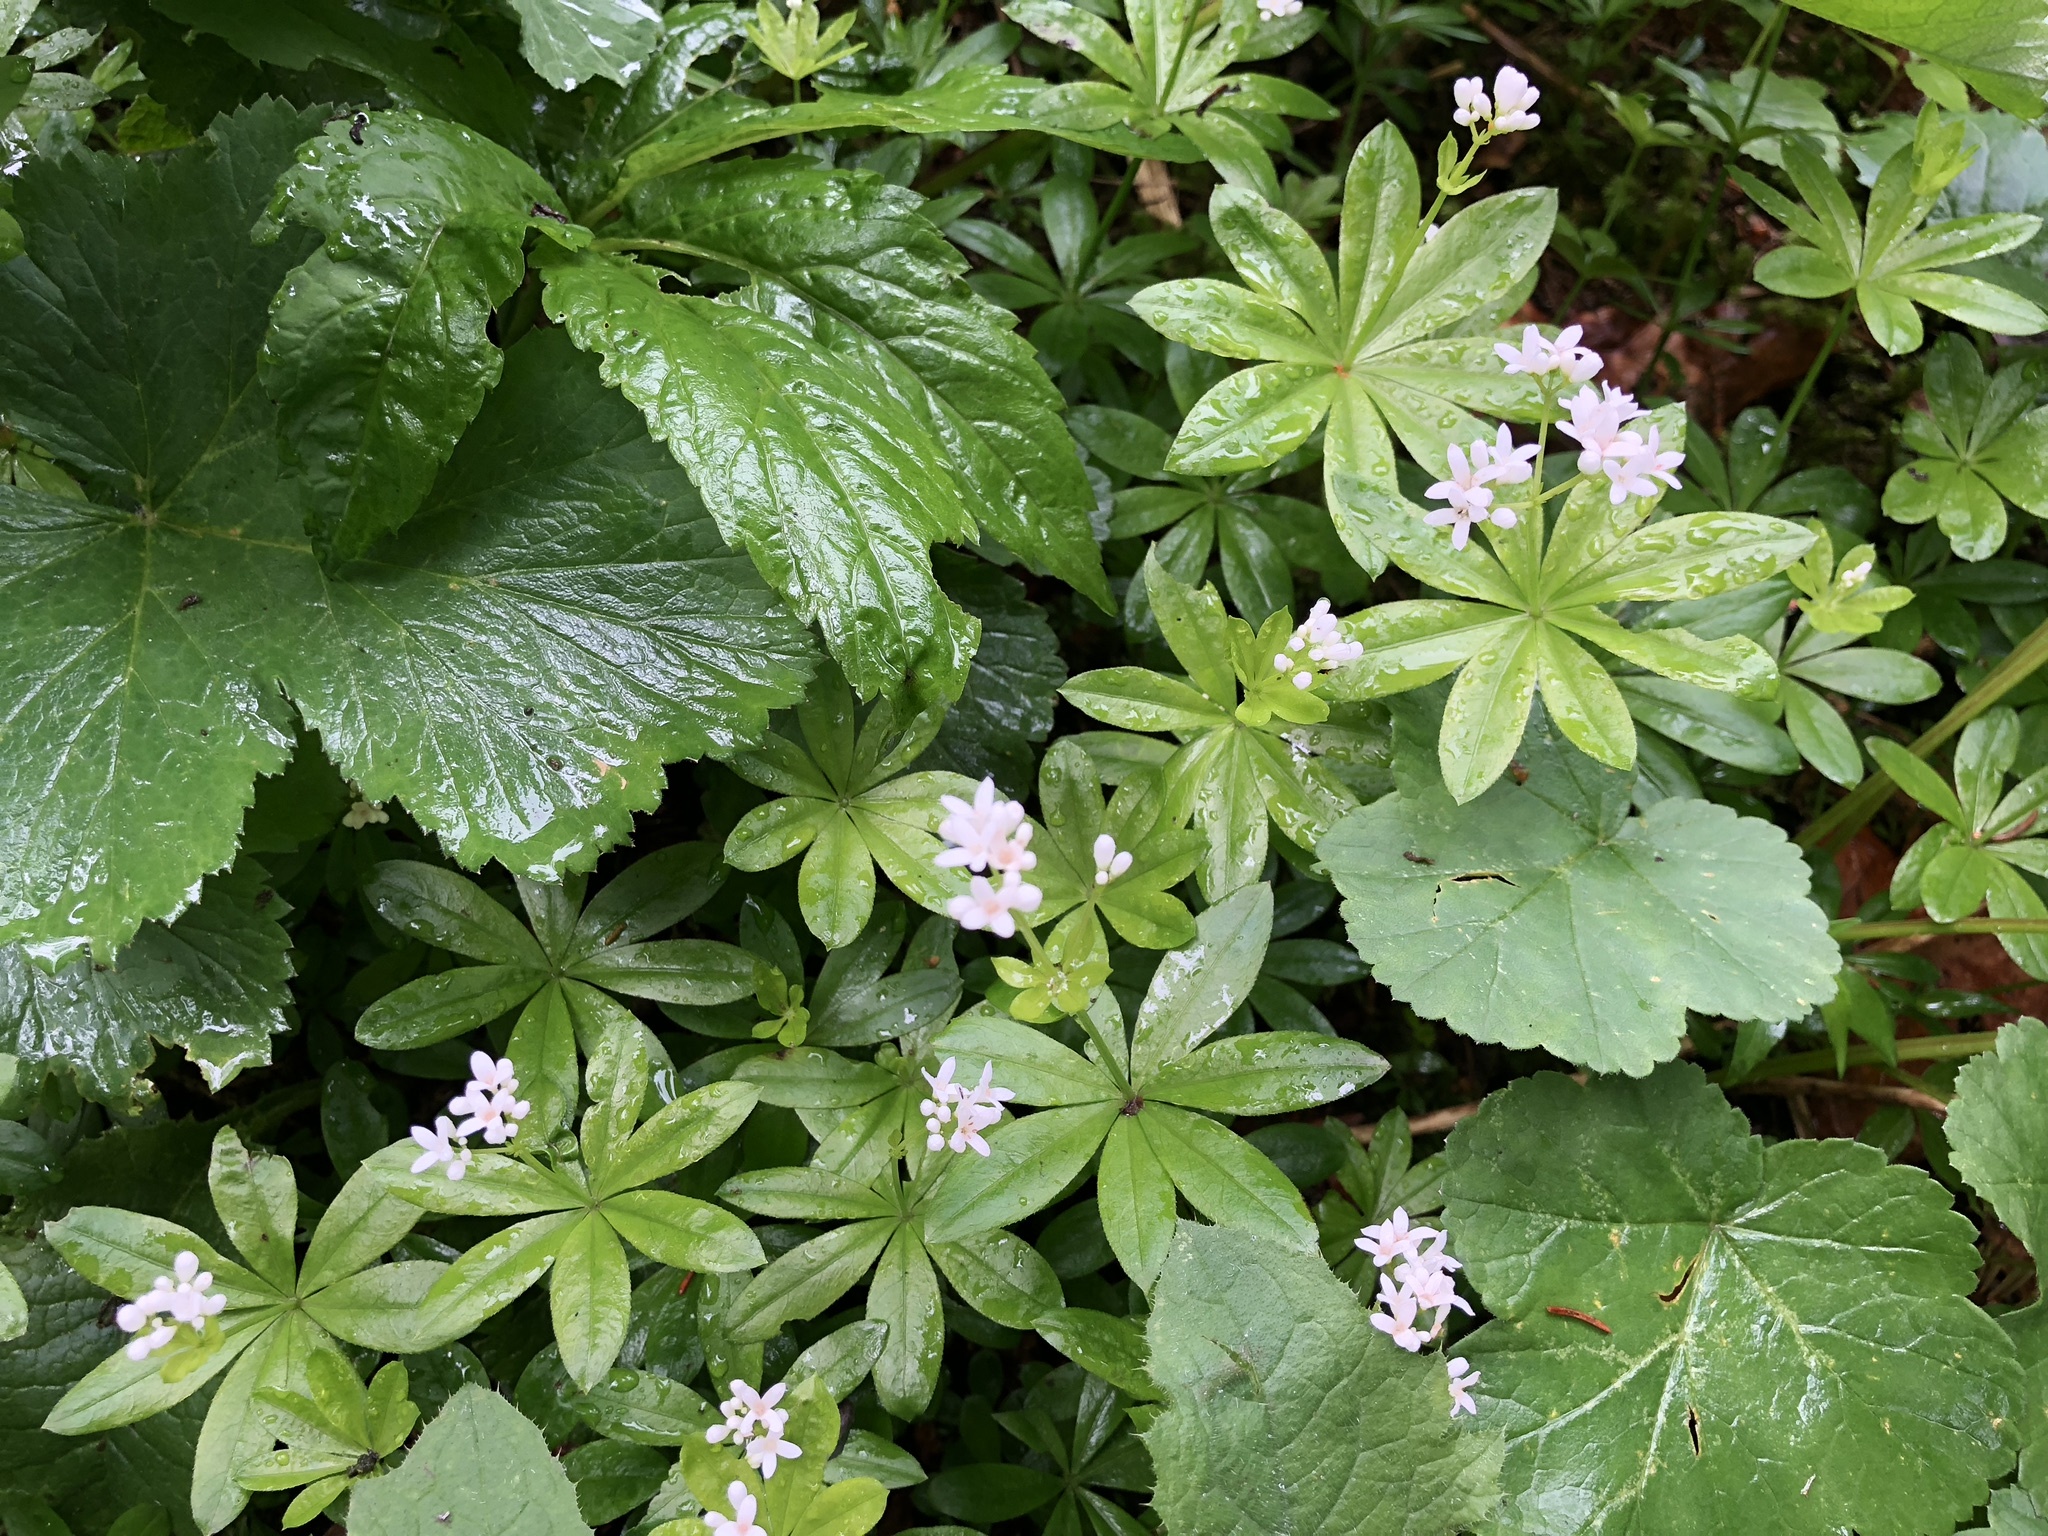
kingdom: Plantae
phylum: Tracheophyta
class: Magnoliopsida
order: Gentianales
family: Rubiaceae
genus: Galium
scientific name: Galium odoratum
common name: Sweet woodruff
